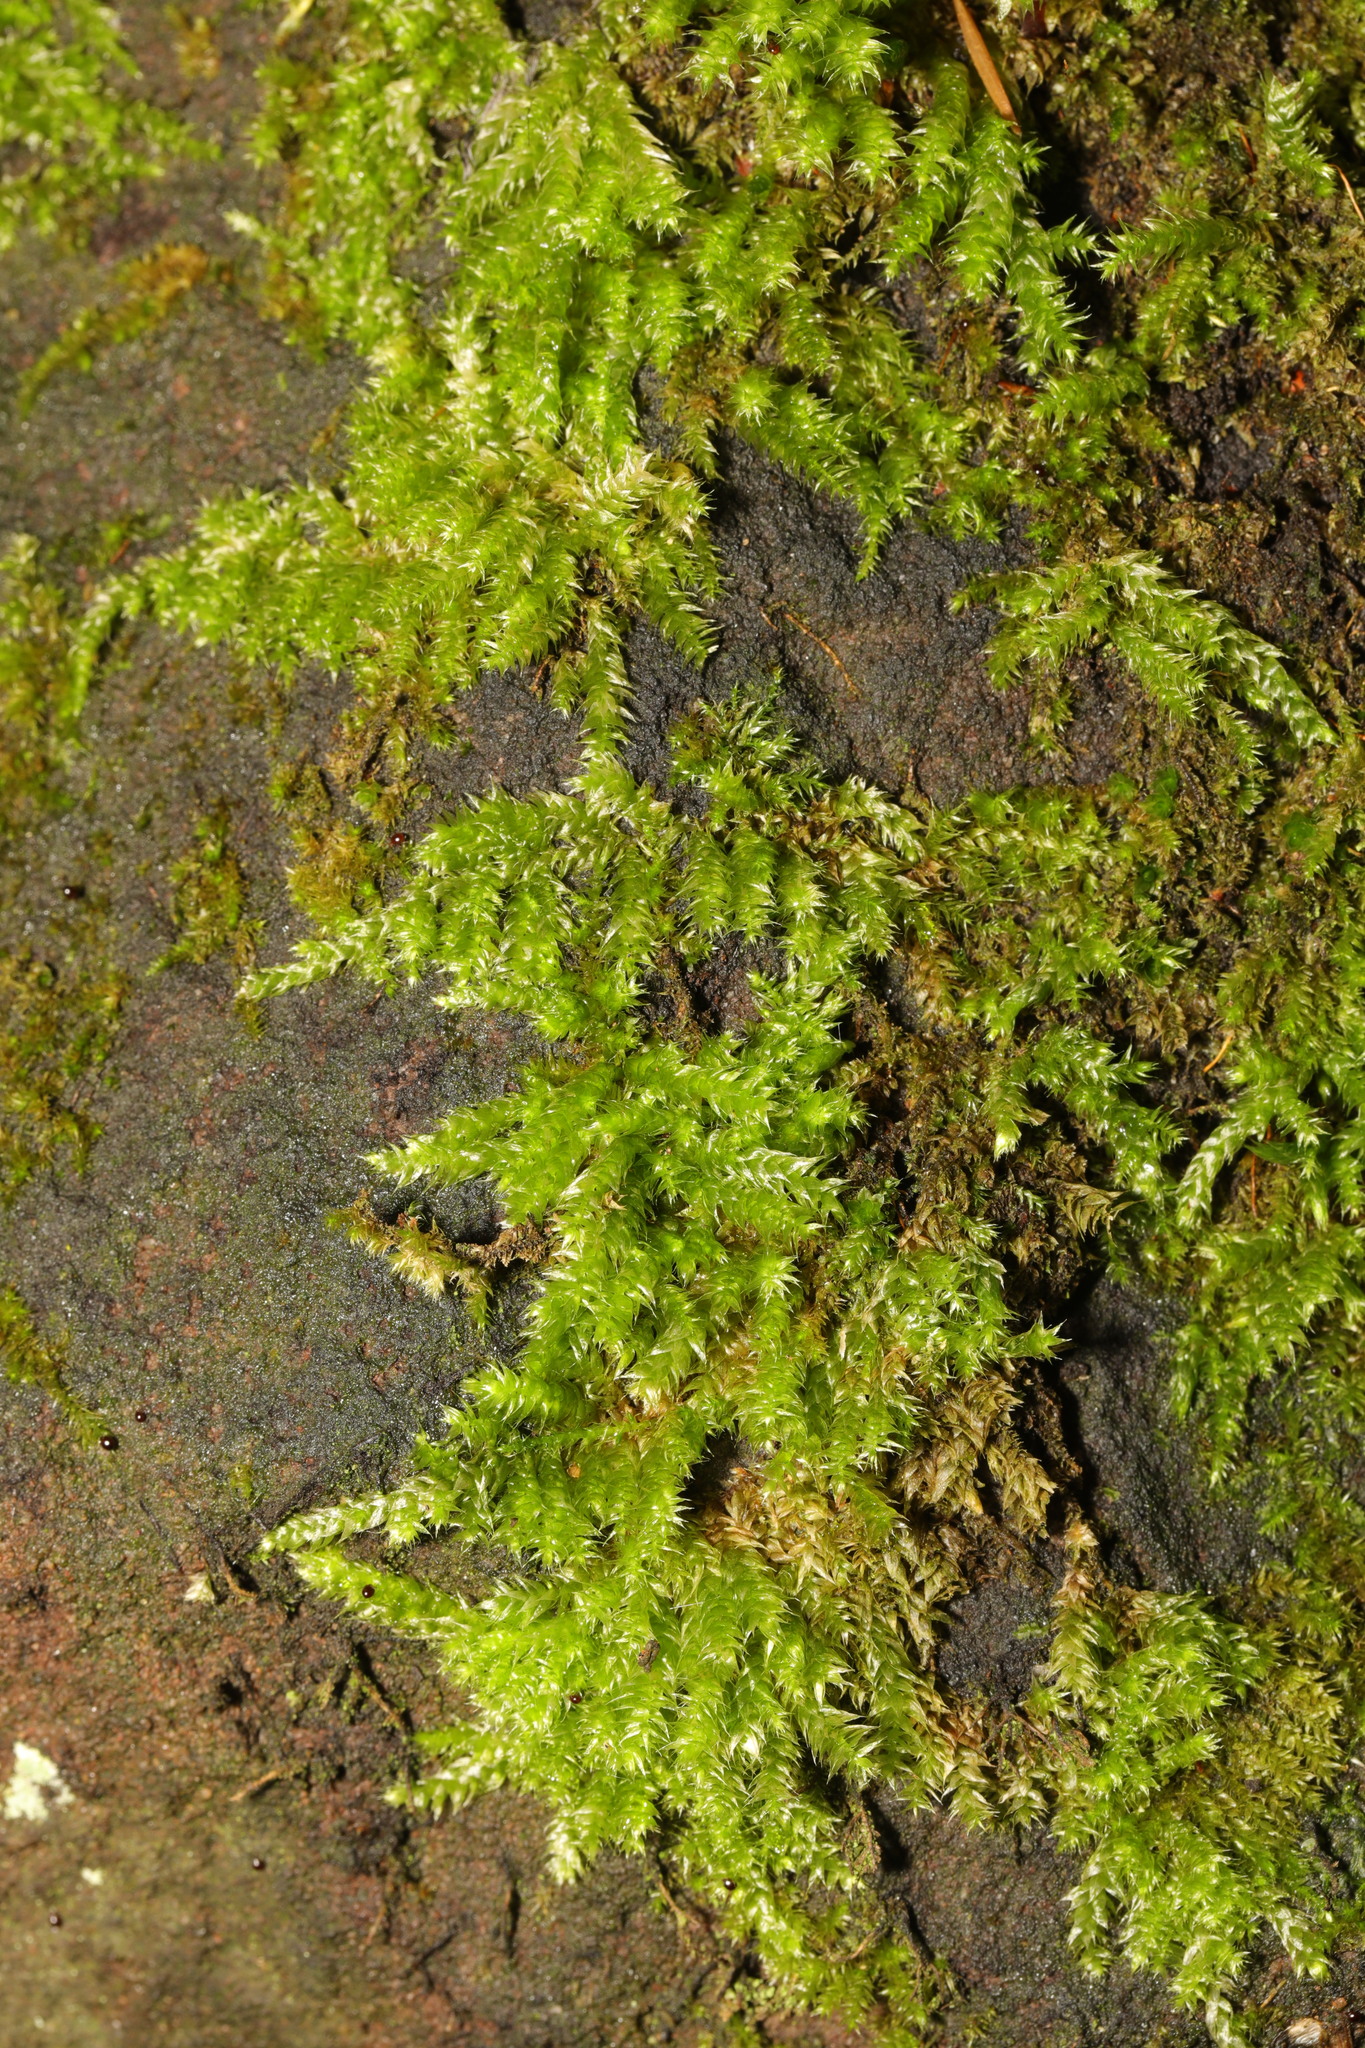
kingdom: Plantae
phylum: Bryophyta
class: Bryopsida
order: Hypnales
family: Brachytheciaceae
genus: Homalothecium
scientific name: Homalothecium sericeum
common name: Silky wall feather-moss
